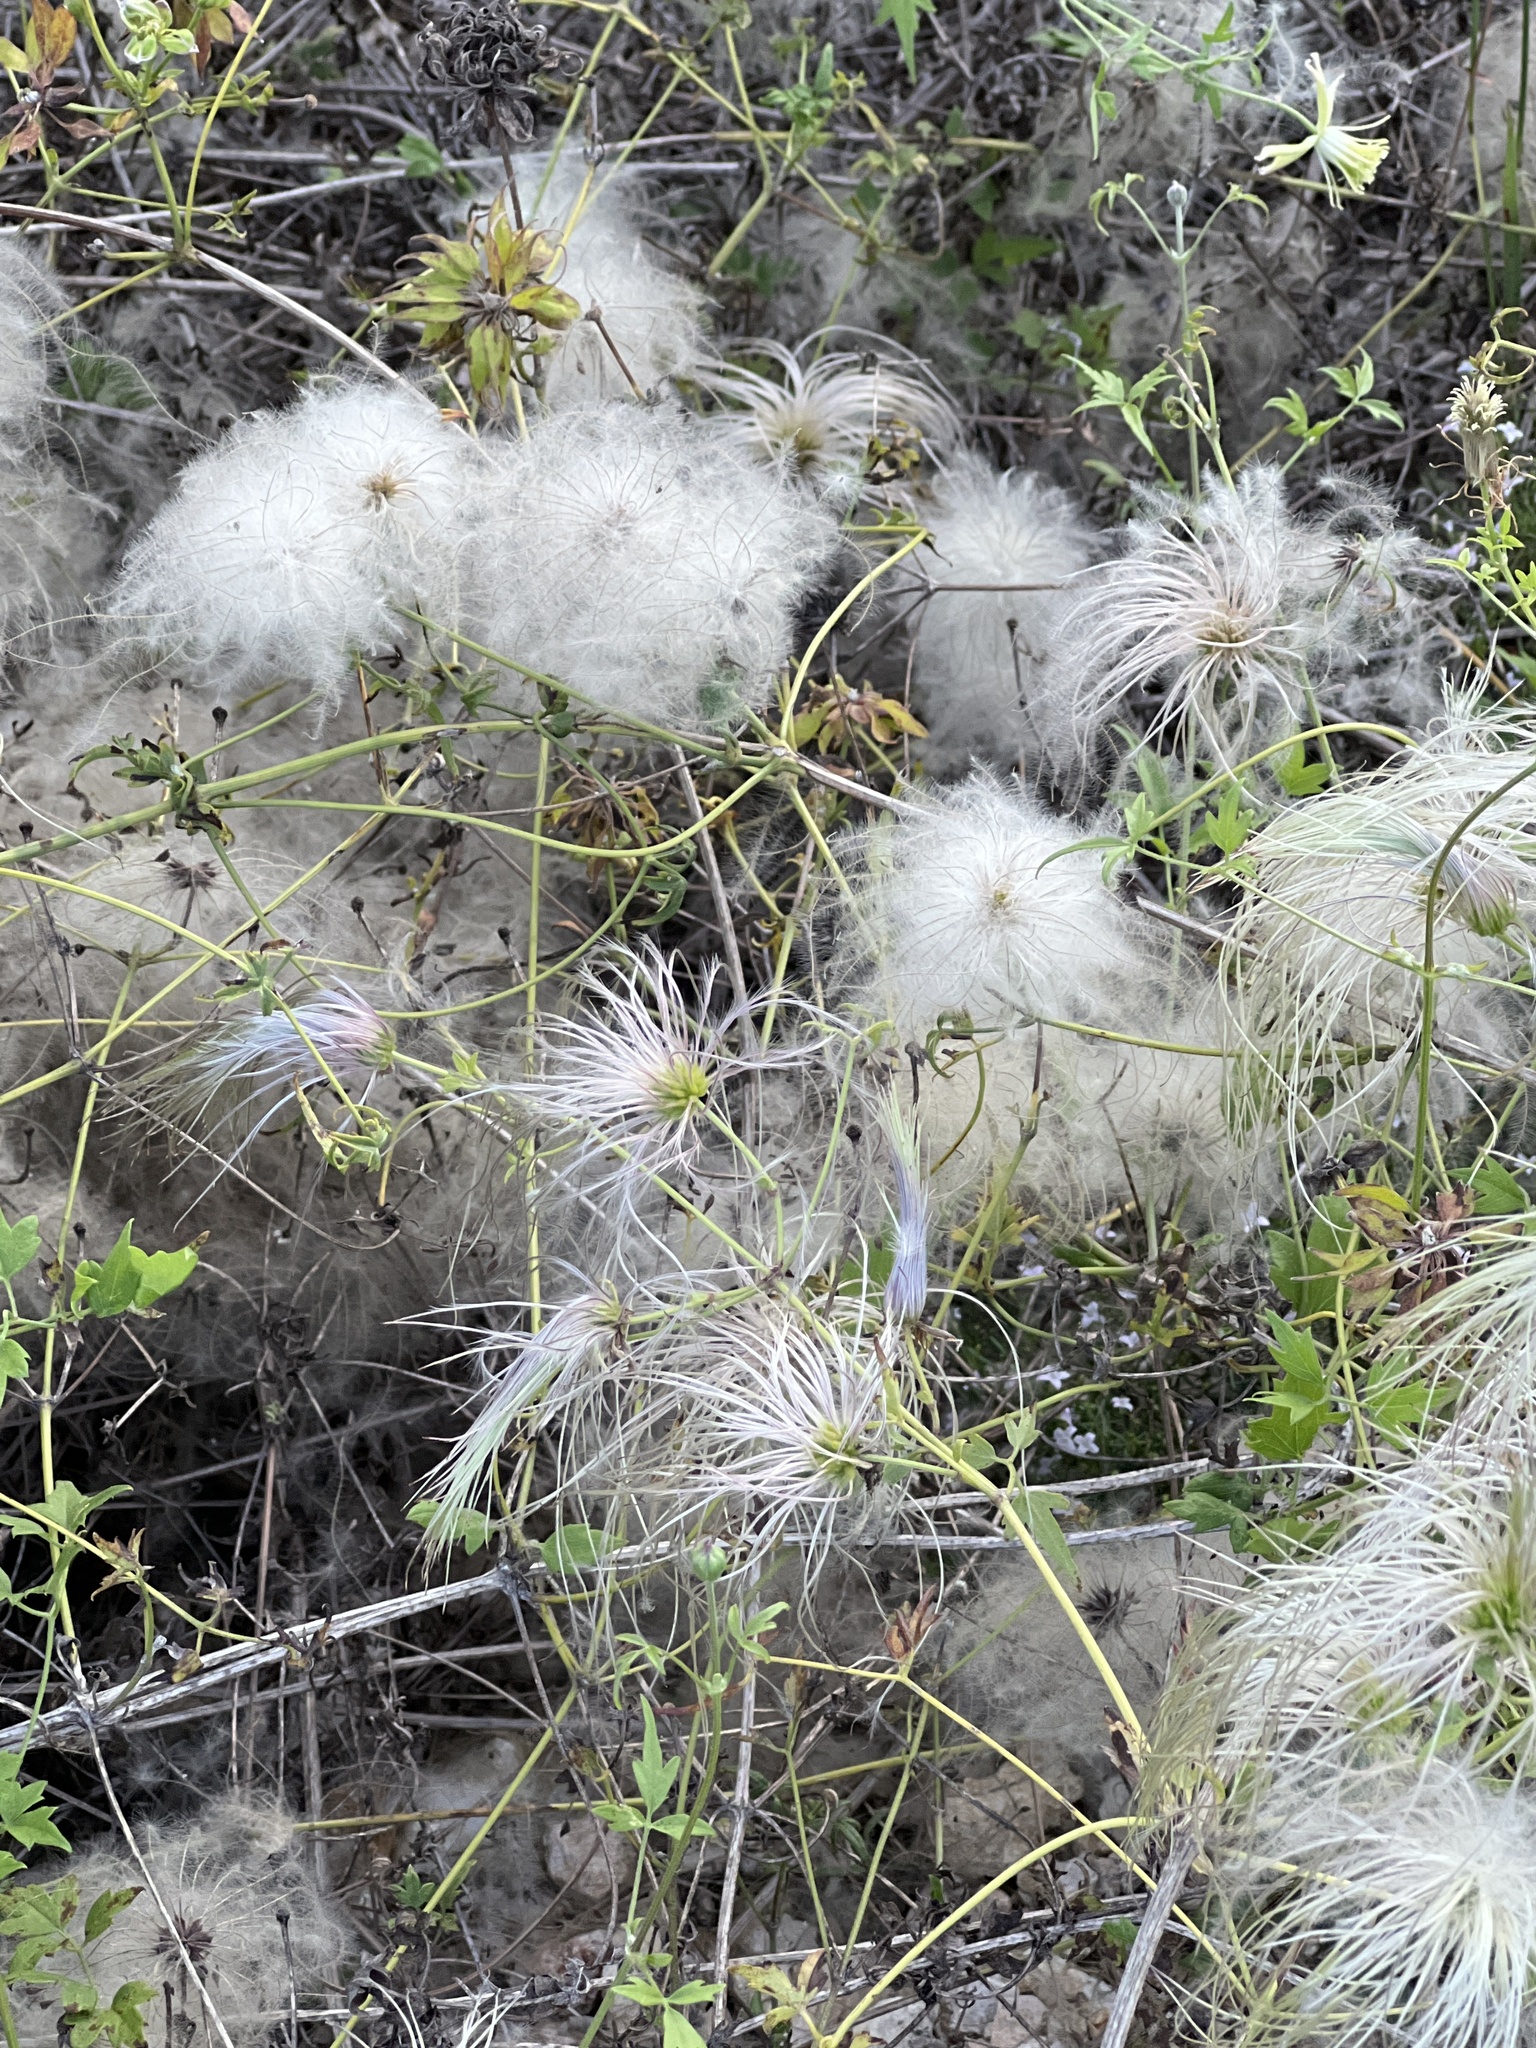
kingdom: Plantae
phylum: Tracheophyta
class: Magnoliopsida
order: Ranunculales
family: Ranunculaceae
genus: Clematis
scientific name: Clematis drummondii
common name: Texas virgin's bower
